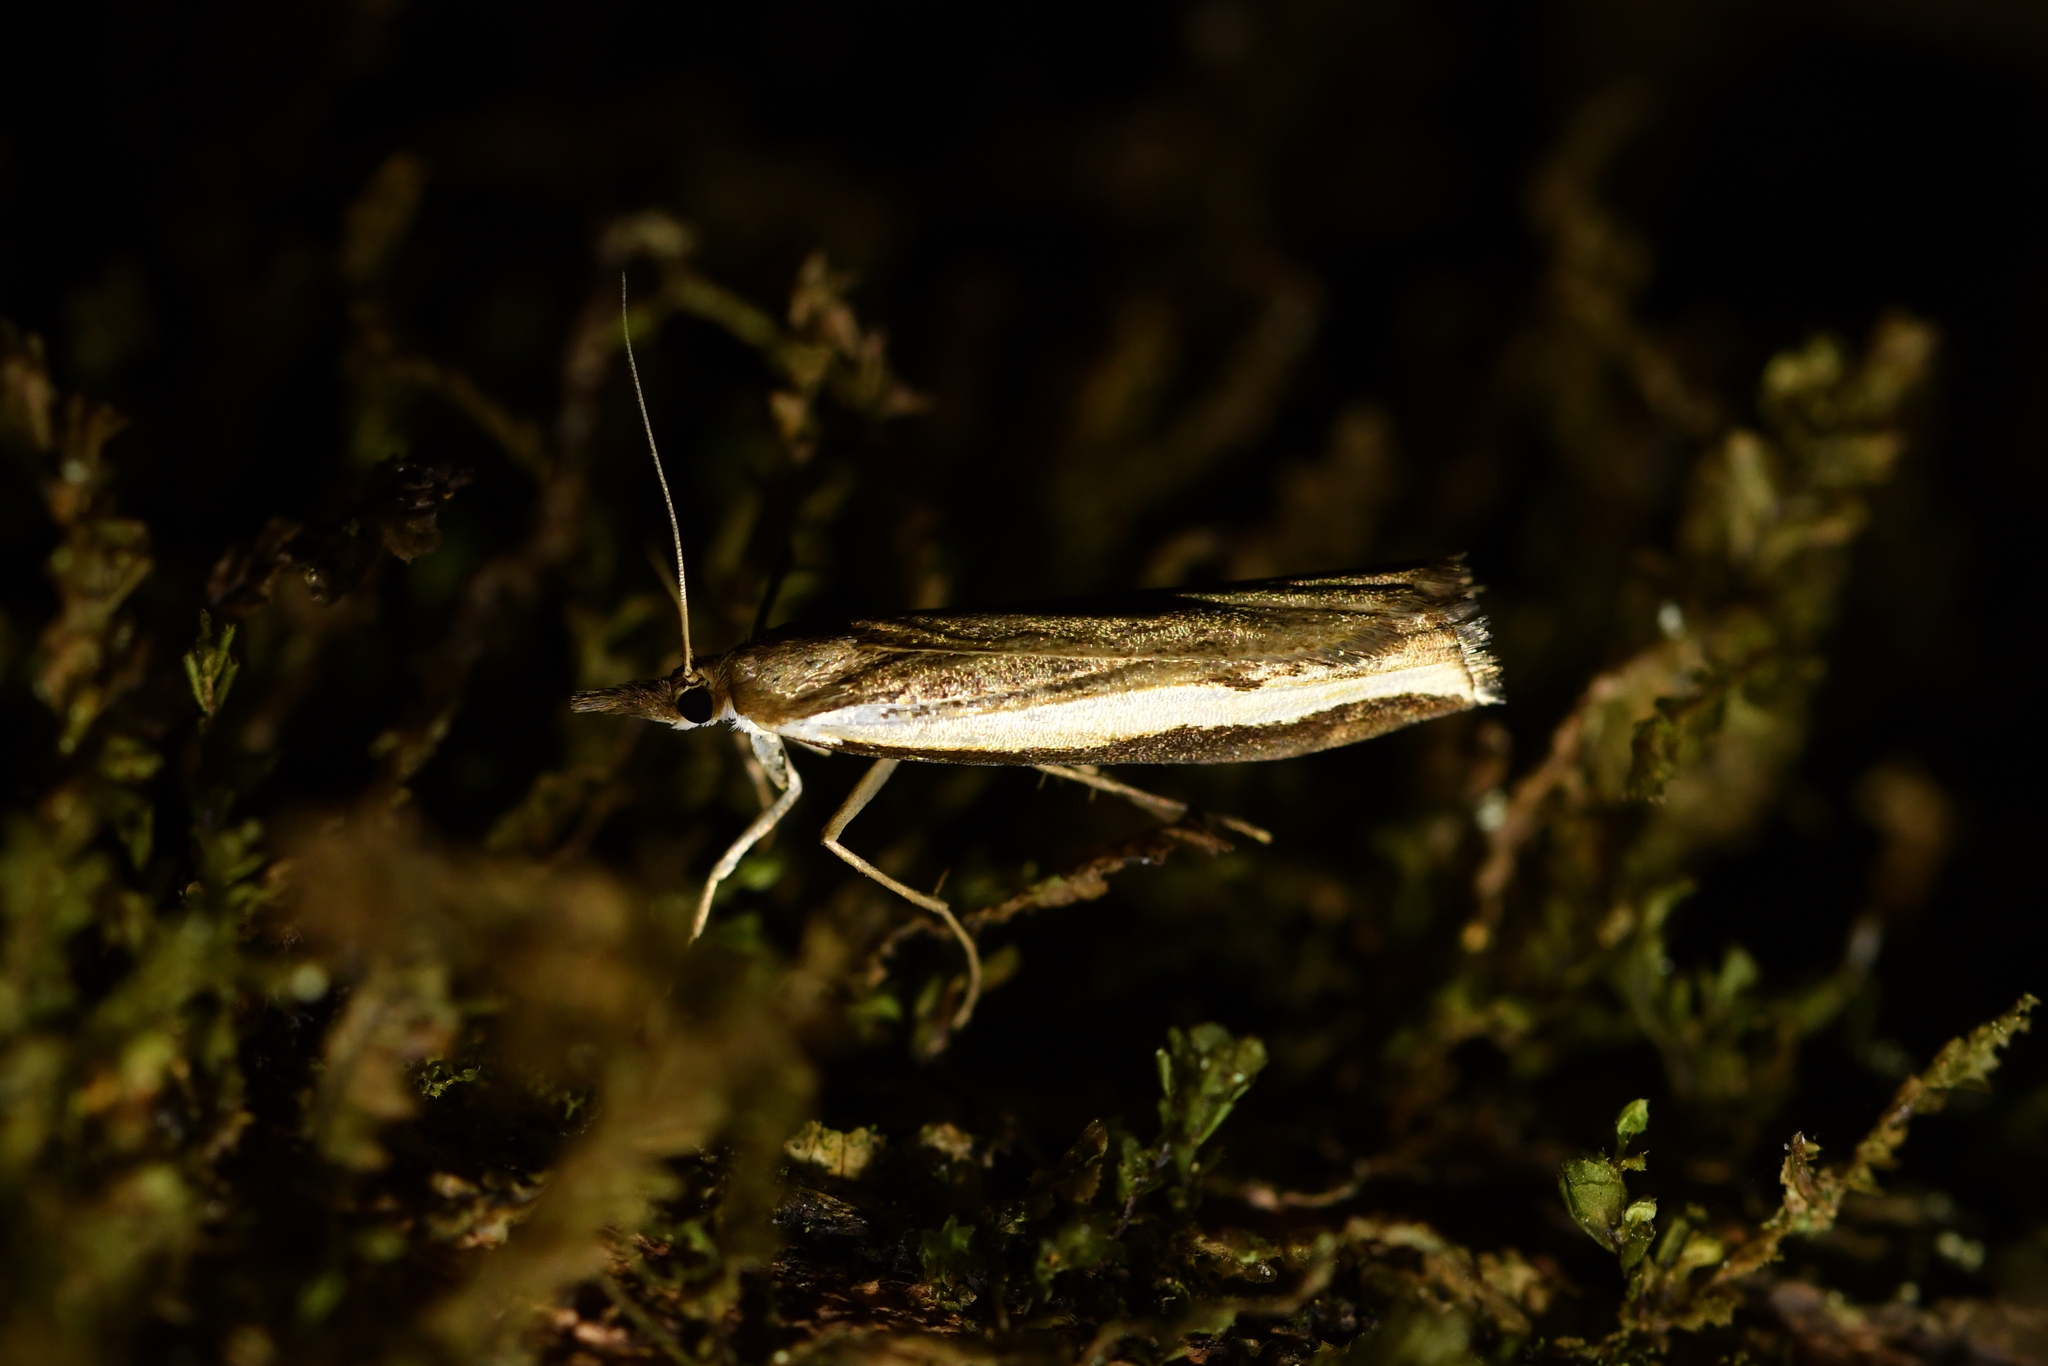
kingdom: Animalia
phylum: Arthropoda
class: Insecta
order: Lepidoptera
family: Crambidae
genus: Orocrambus
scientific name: Orocrambus flexuosellus
